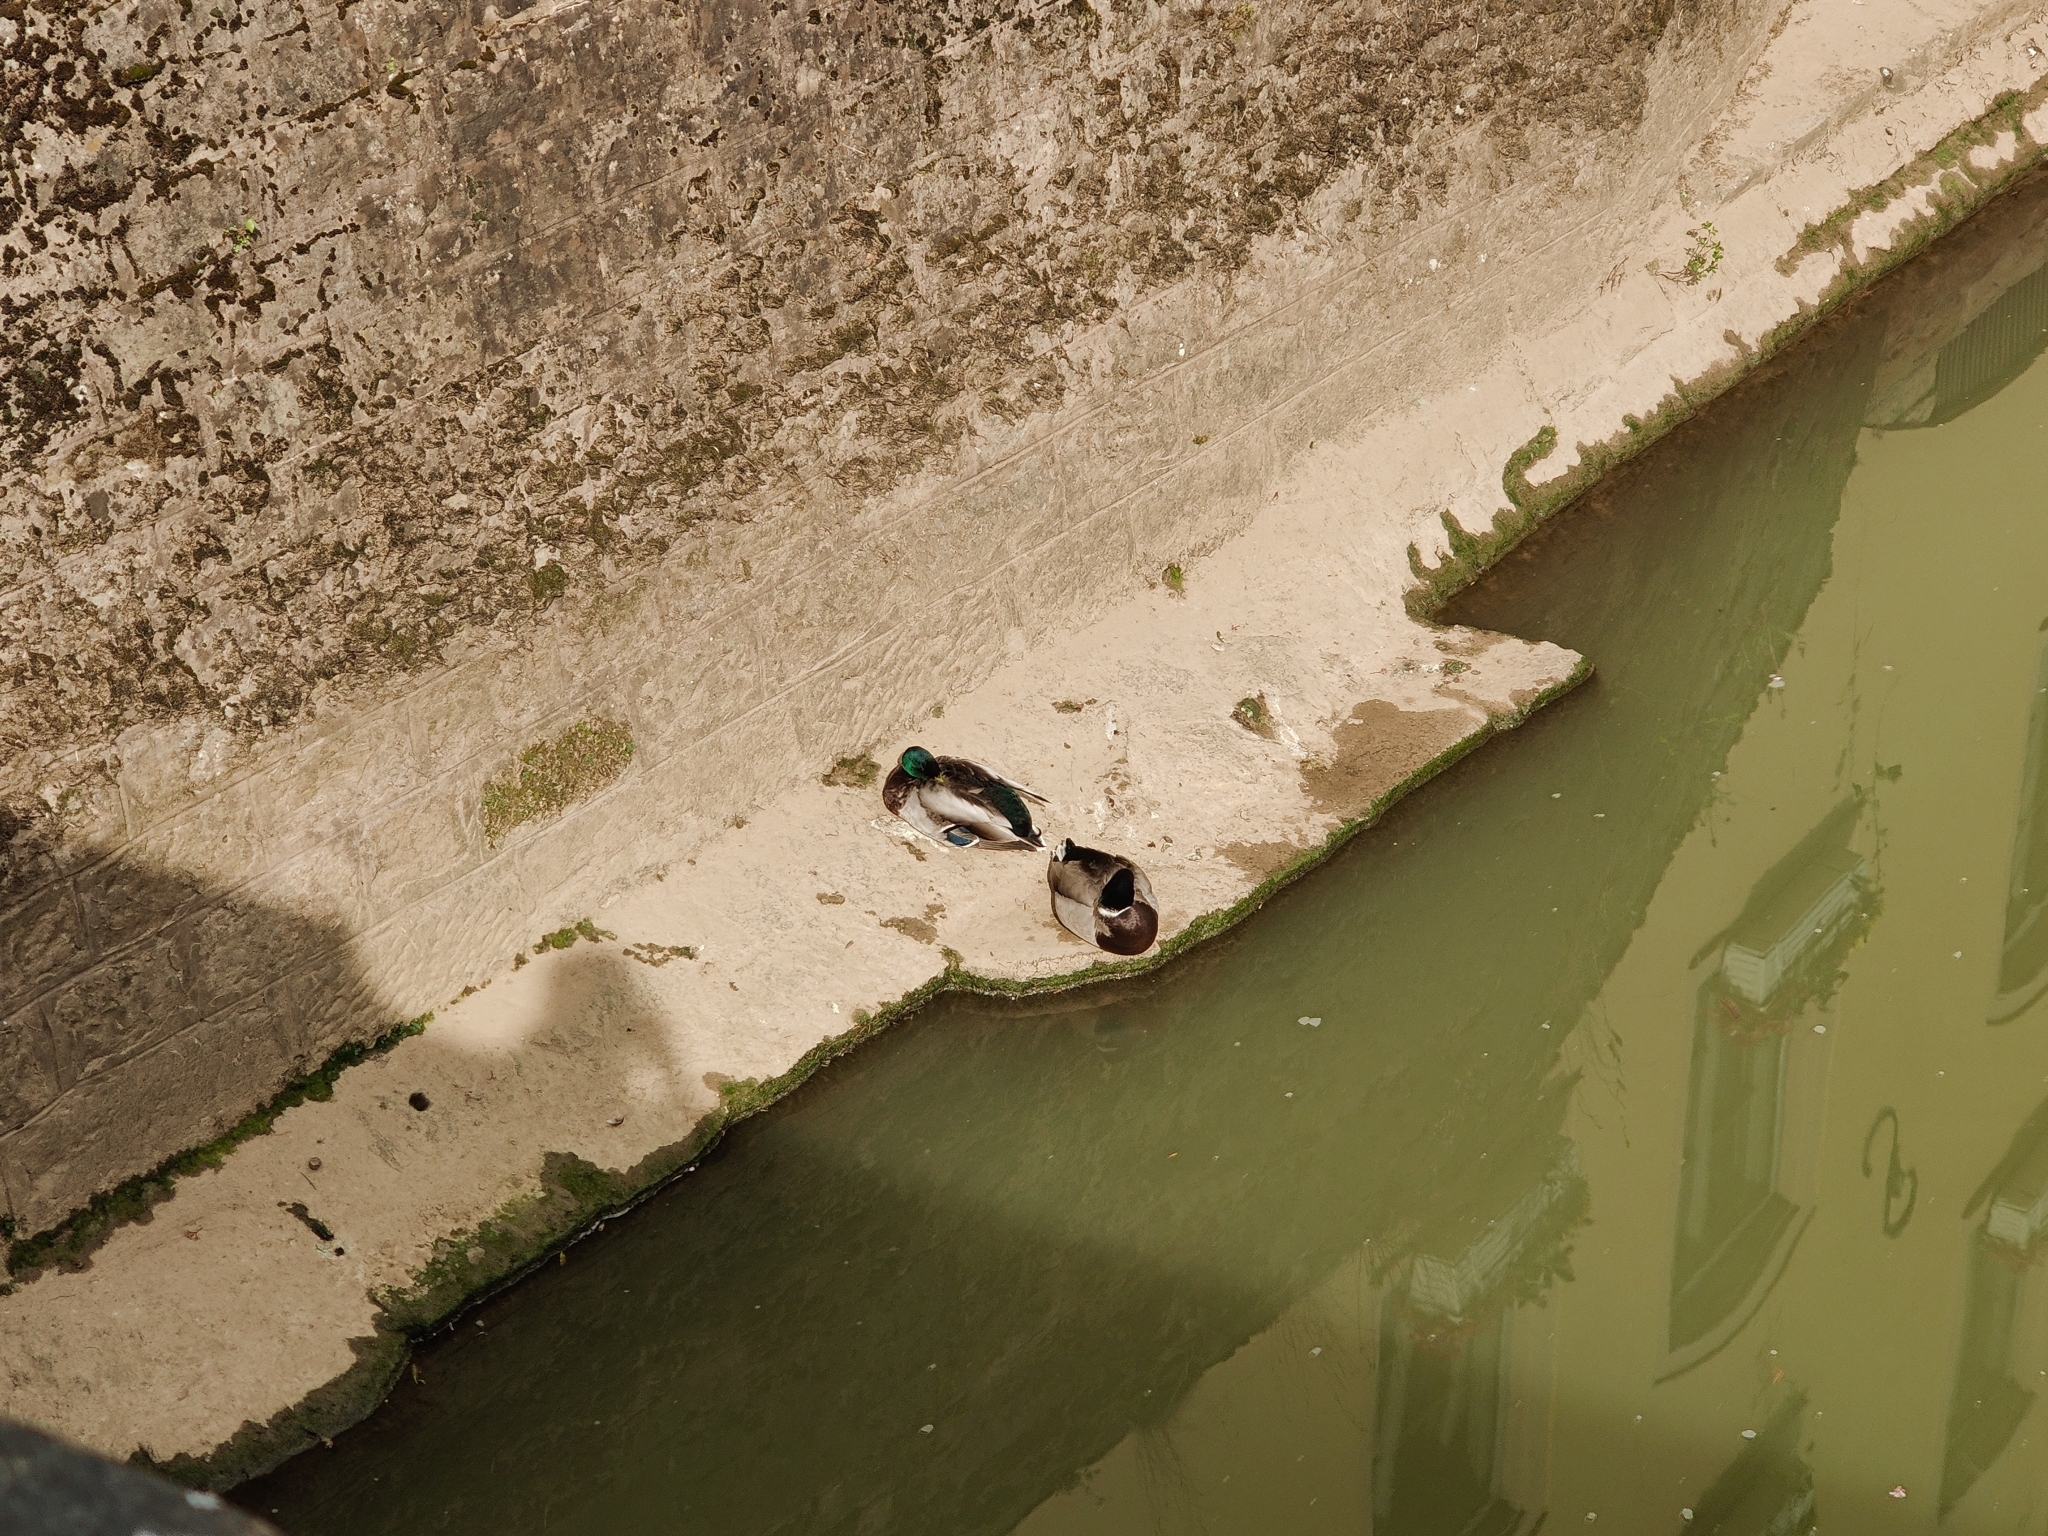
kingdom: Animalia
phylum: Chordata
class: Aves
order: Anseriformes
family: Anatidae
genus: Anas
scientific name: Anas platyrhynchos
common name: Mallard
